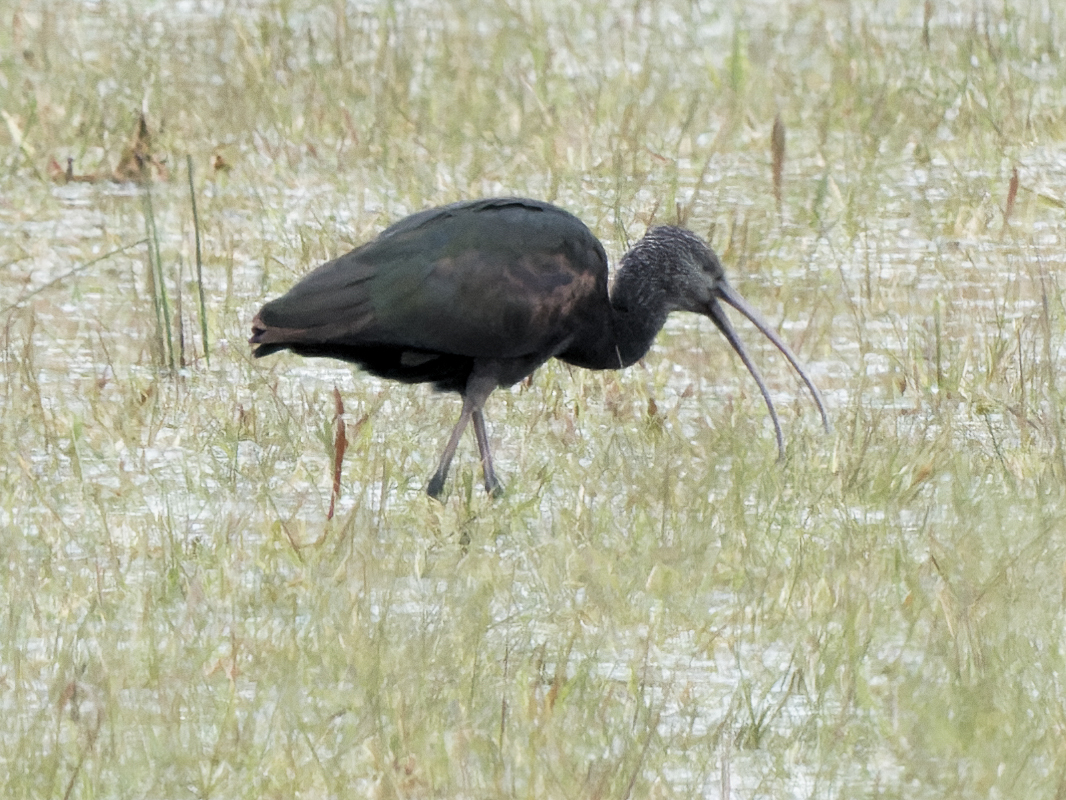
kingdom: Animalia
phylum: Chordata
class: Aves
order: Pelecaniformes
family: Threskiornithidae
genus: Plegadis
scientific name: Plegadis falcinellus
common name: Glossy ibis
